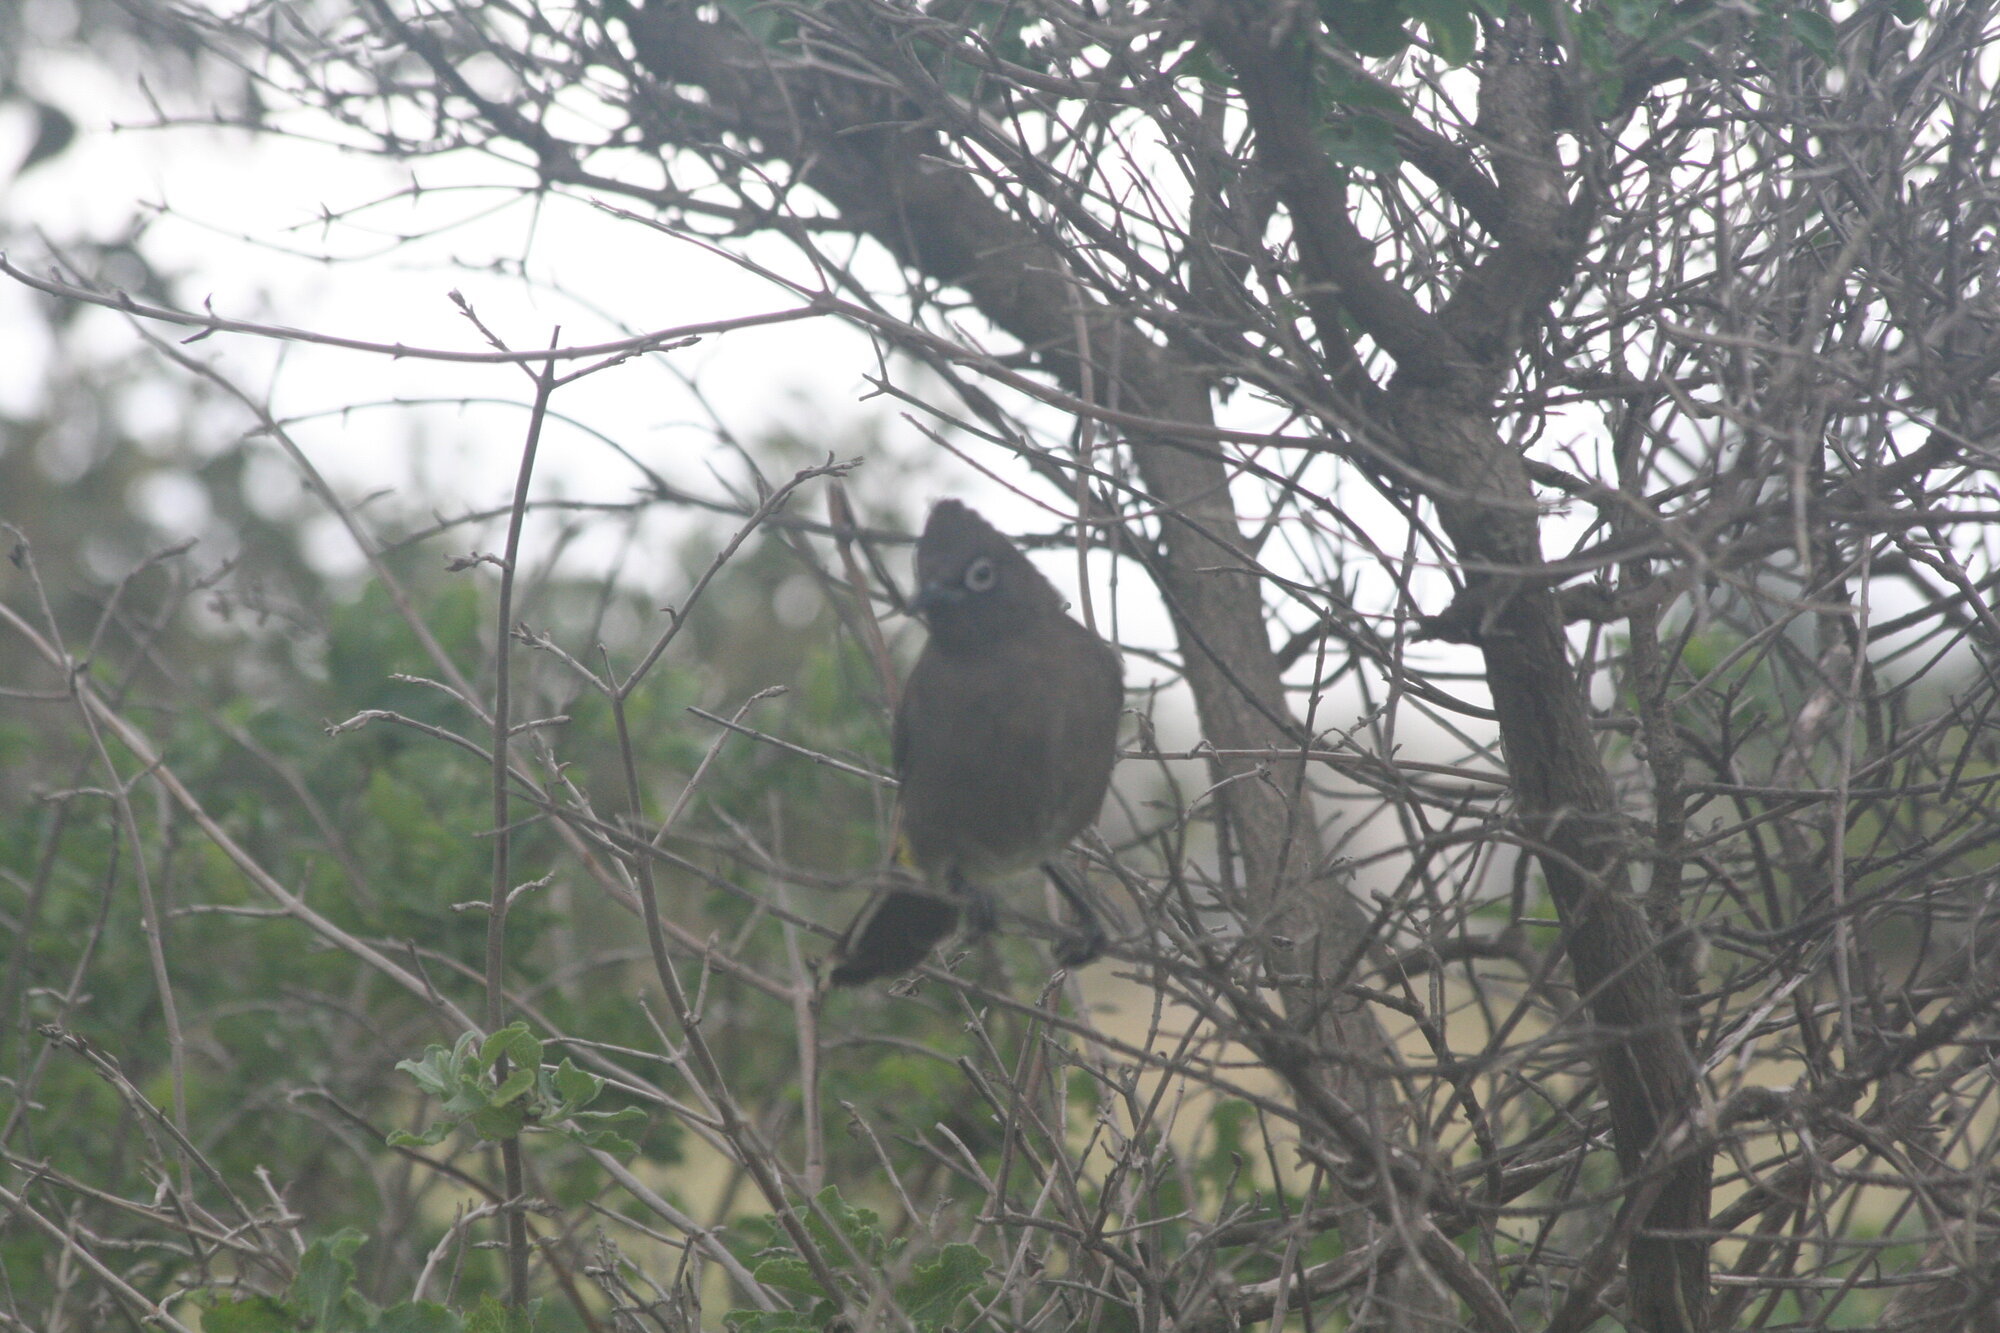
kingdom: Animalia
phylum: Chordata
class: Aves
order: Passeriformes
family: Pycnonotidae
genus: Pycnonotus
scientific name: Pycnonotus capensis
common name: Cape bulbul
